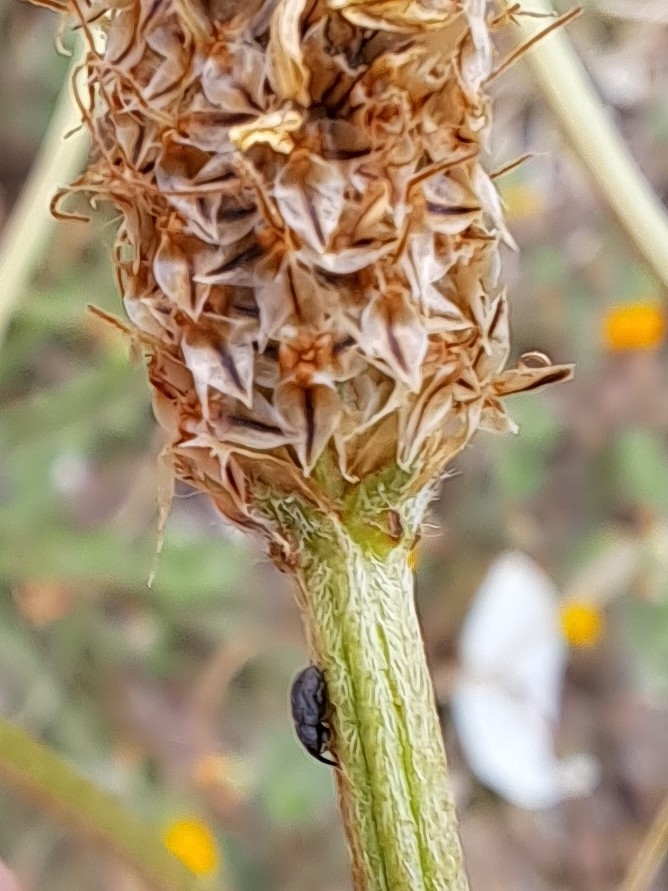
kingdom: Animalia
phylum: Arthropoda
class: Insecta
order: Coleoptera
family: Curculionidae
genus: Mecinus
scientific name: Mecinus pascuorum
